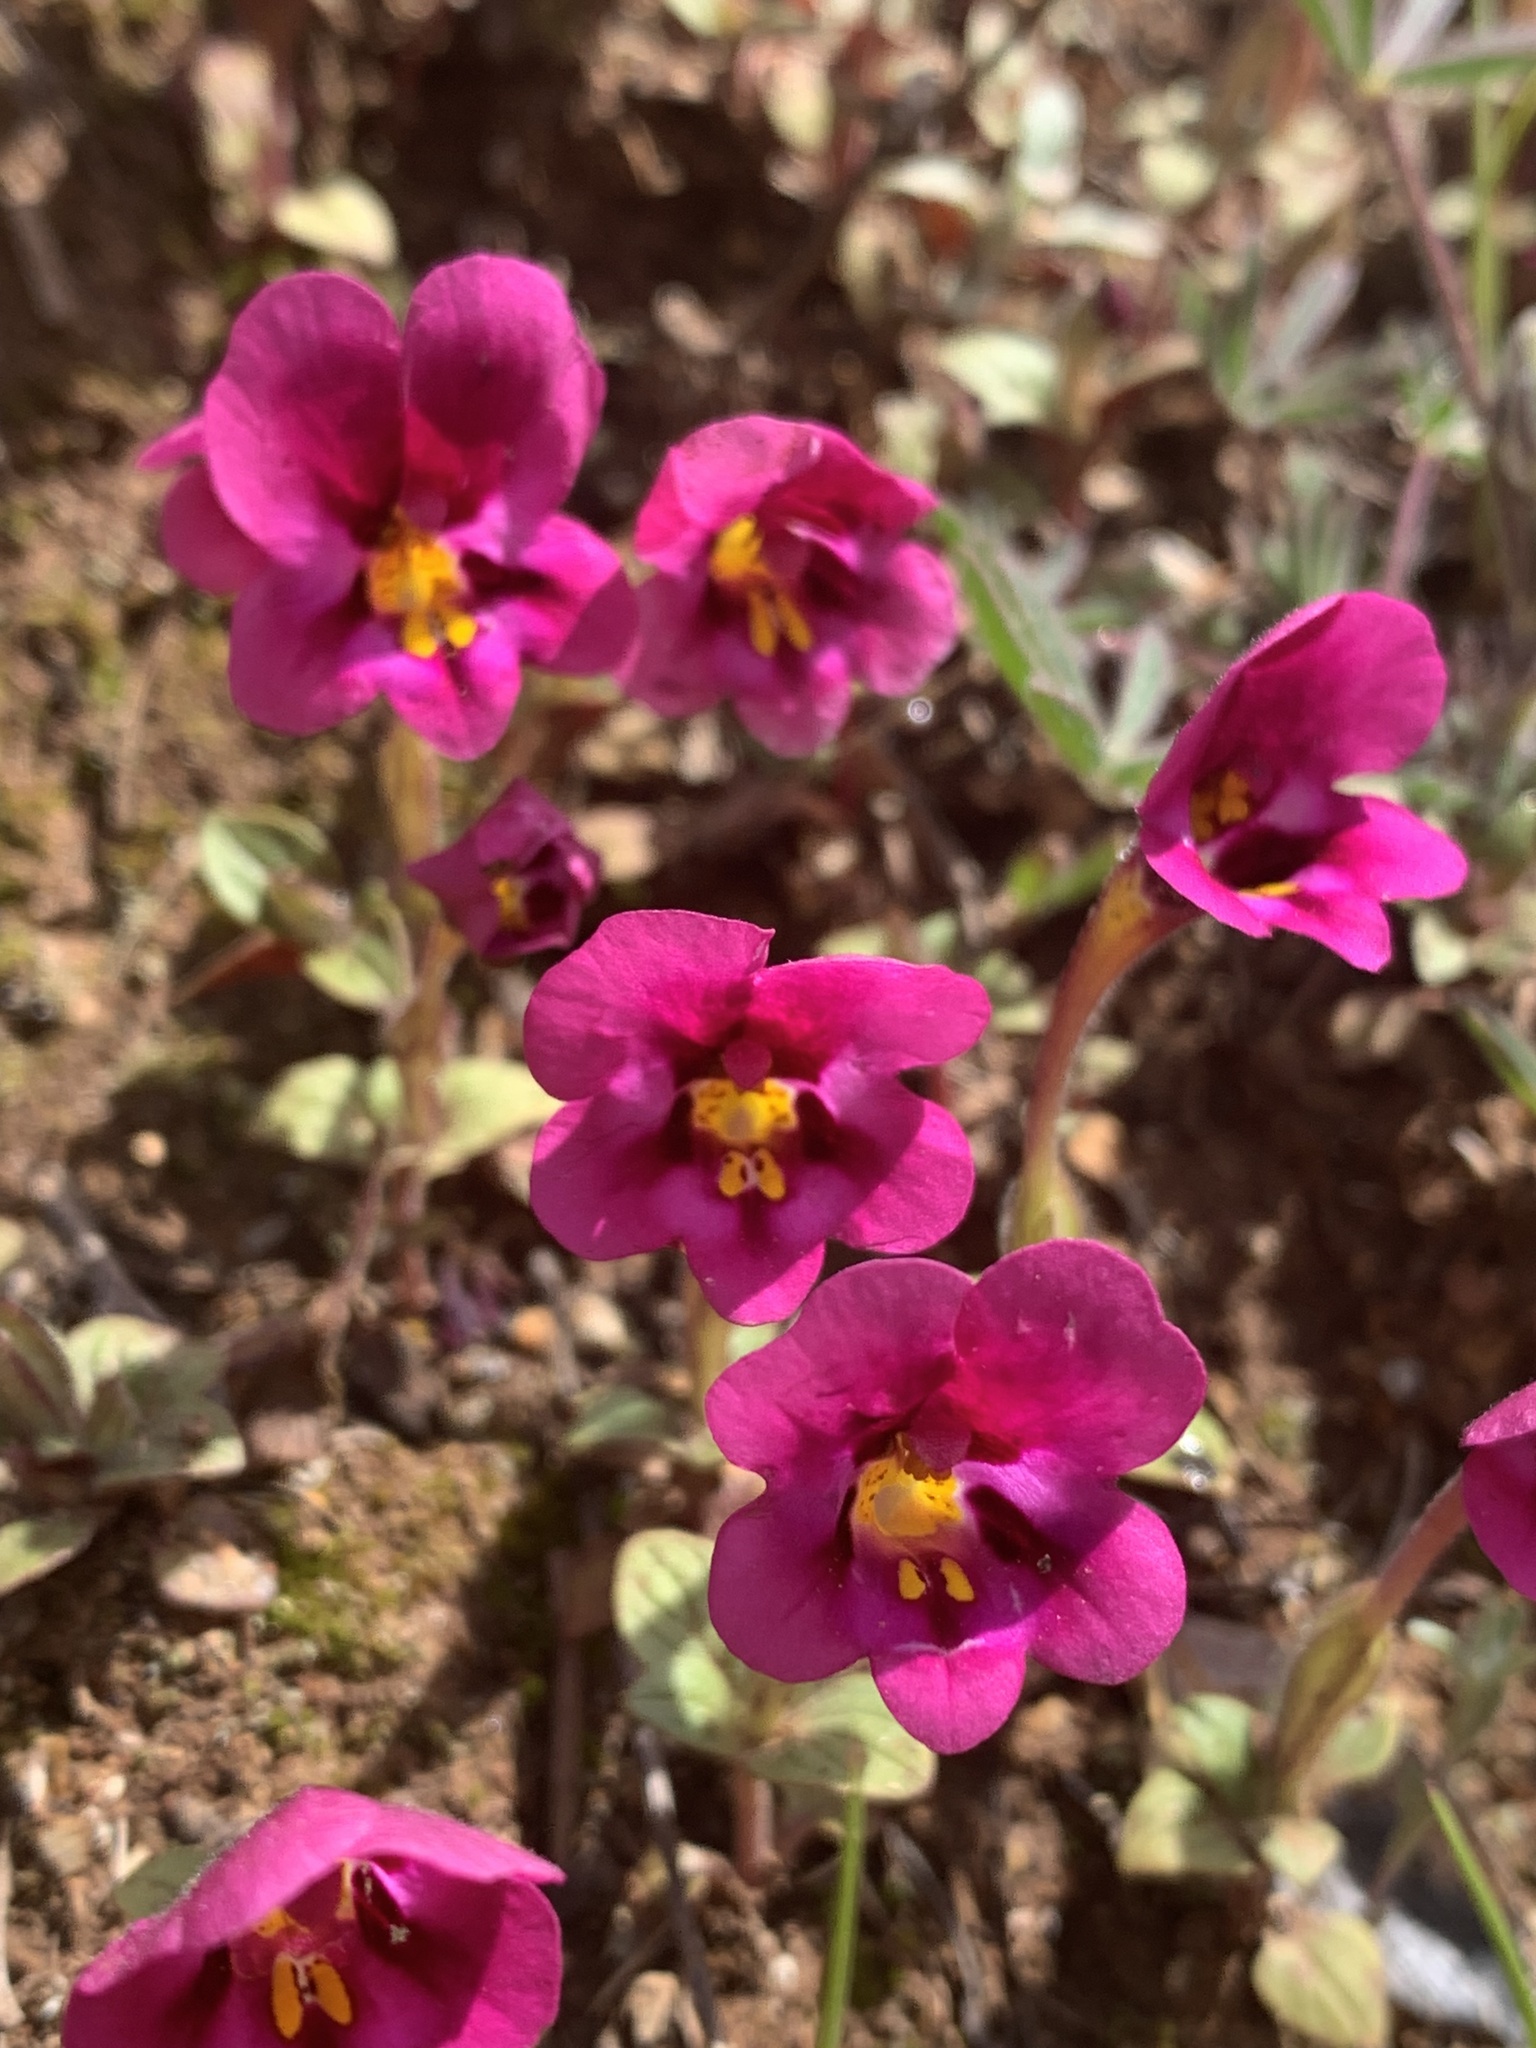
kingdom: Plantae
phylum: Tracheophyta
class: Magnoliopsida
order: Lamiales
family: Phrymaceae
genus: Diplacus
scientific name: Diplacus kelloggii
